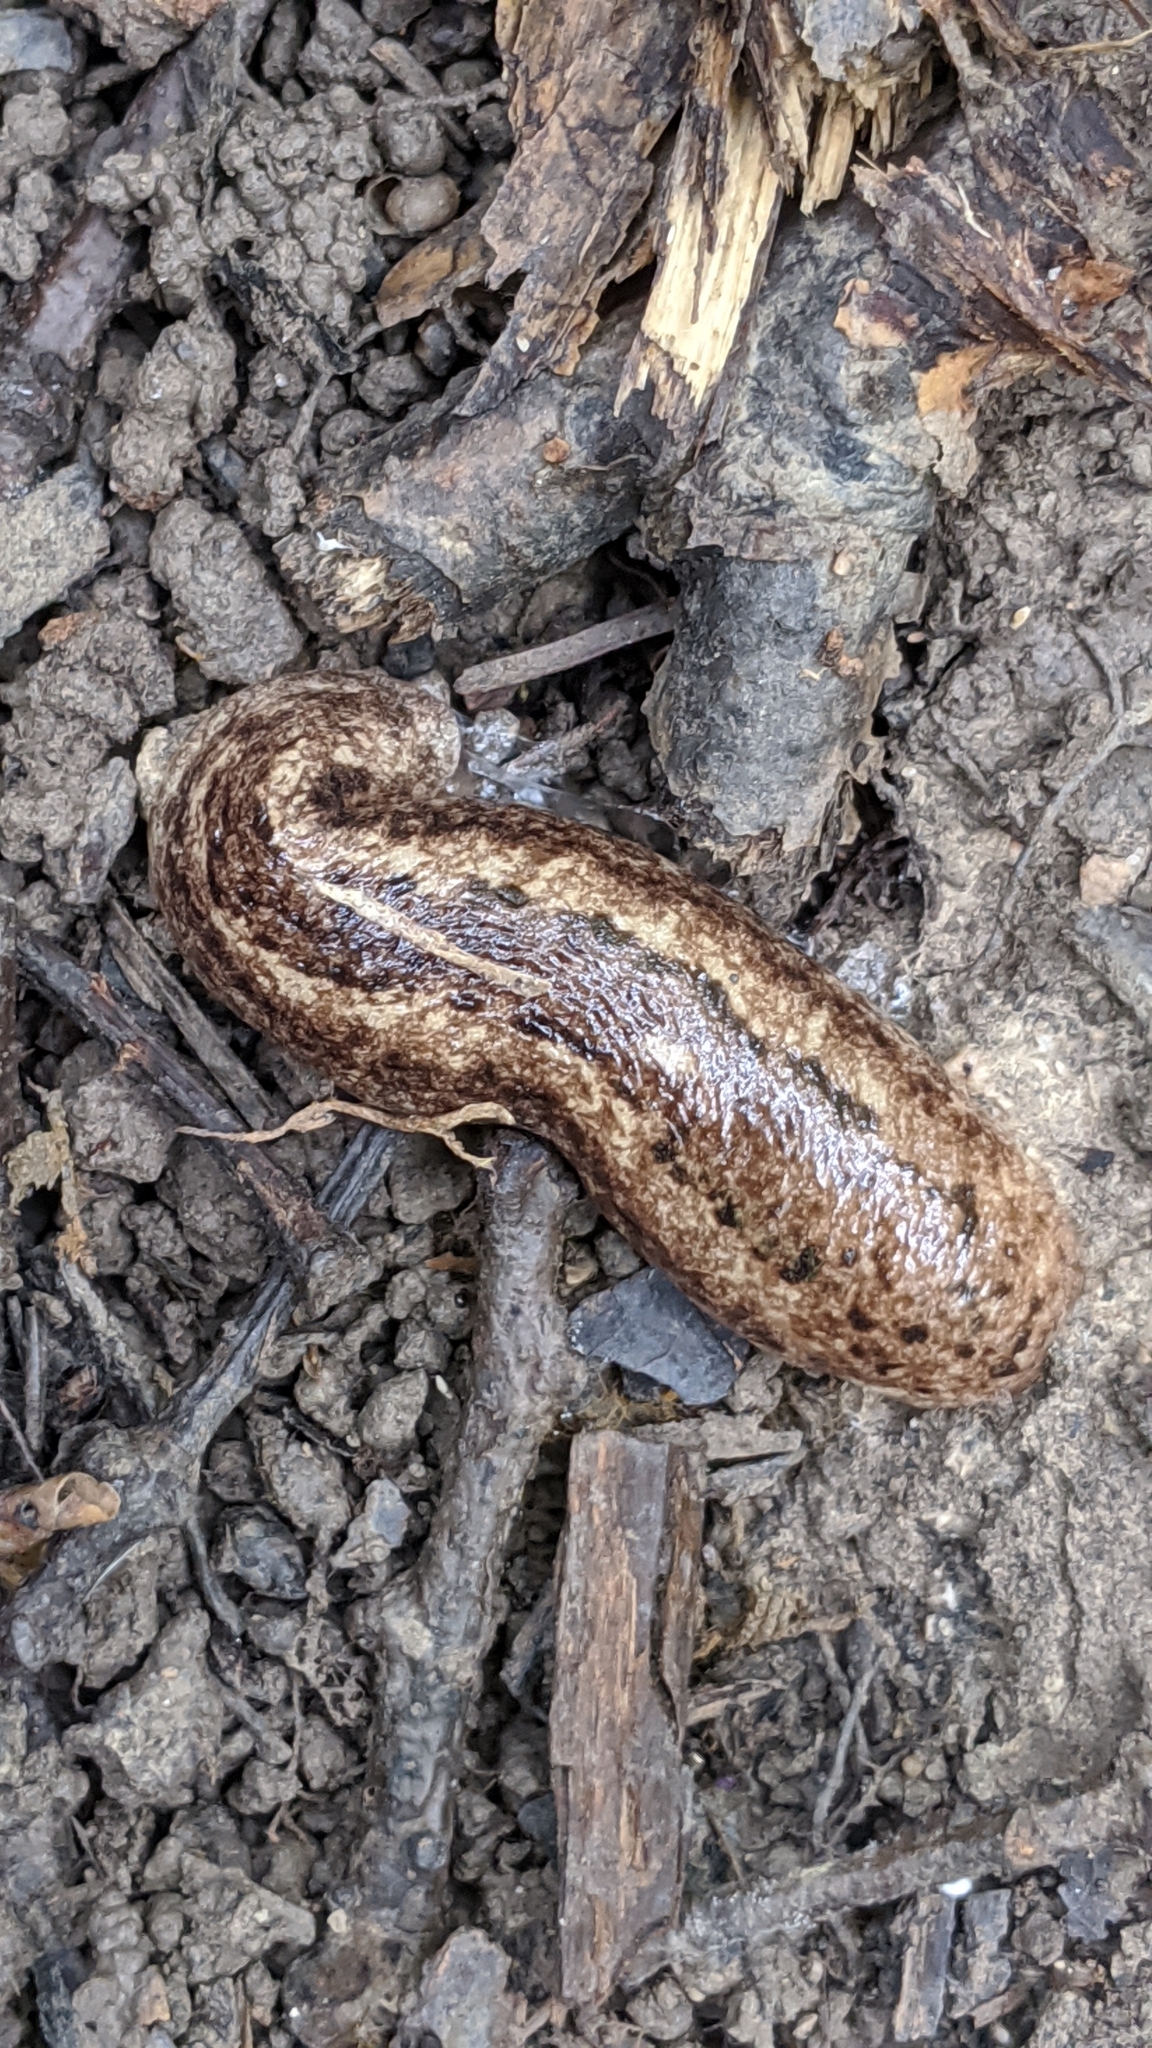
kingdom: Animalia
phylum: Mollusca
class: Gastropoda
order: Stylommatophora
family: Philomycidae
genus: Philomycus
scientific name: Philomycus carolinianus
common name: Carolina mantleslug
